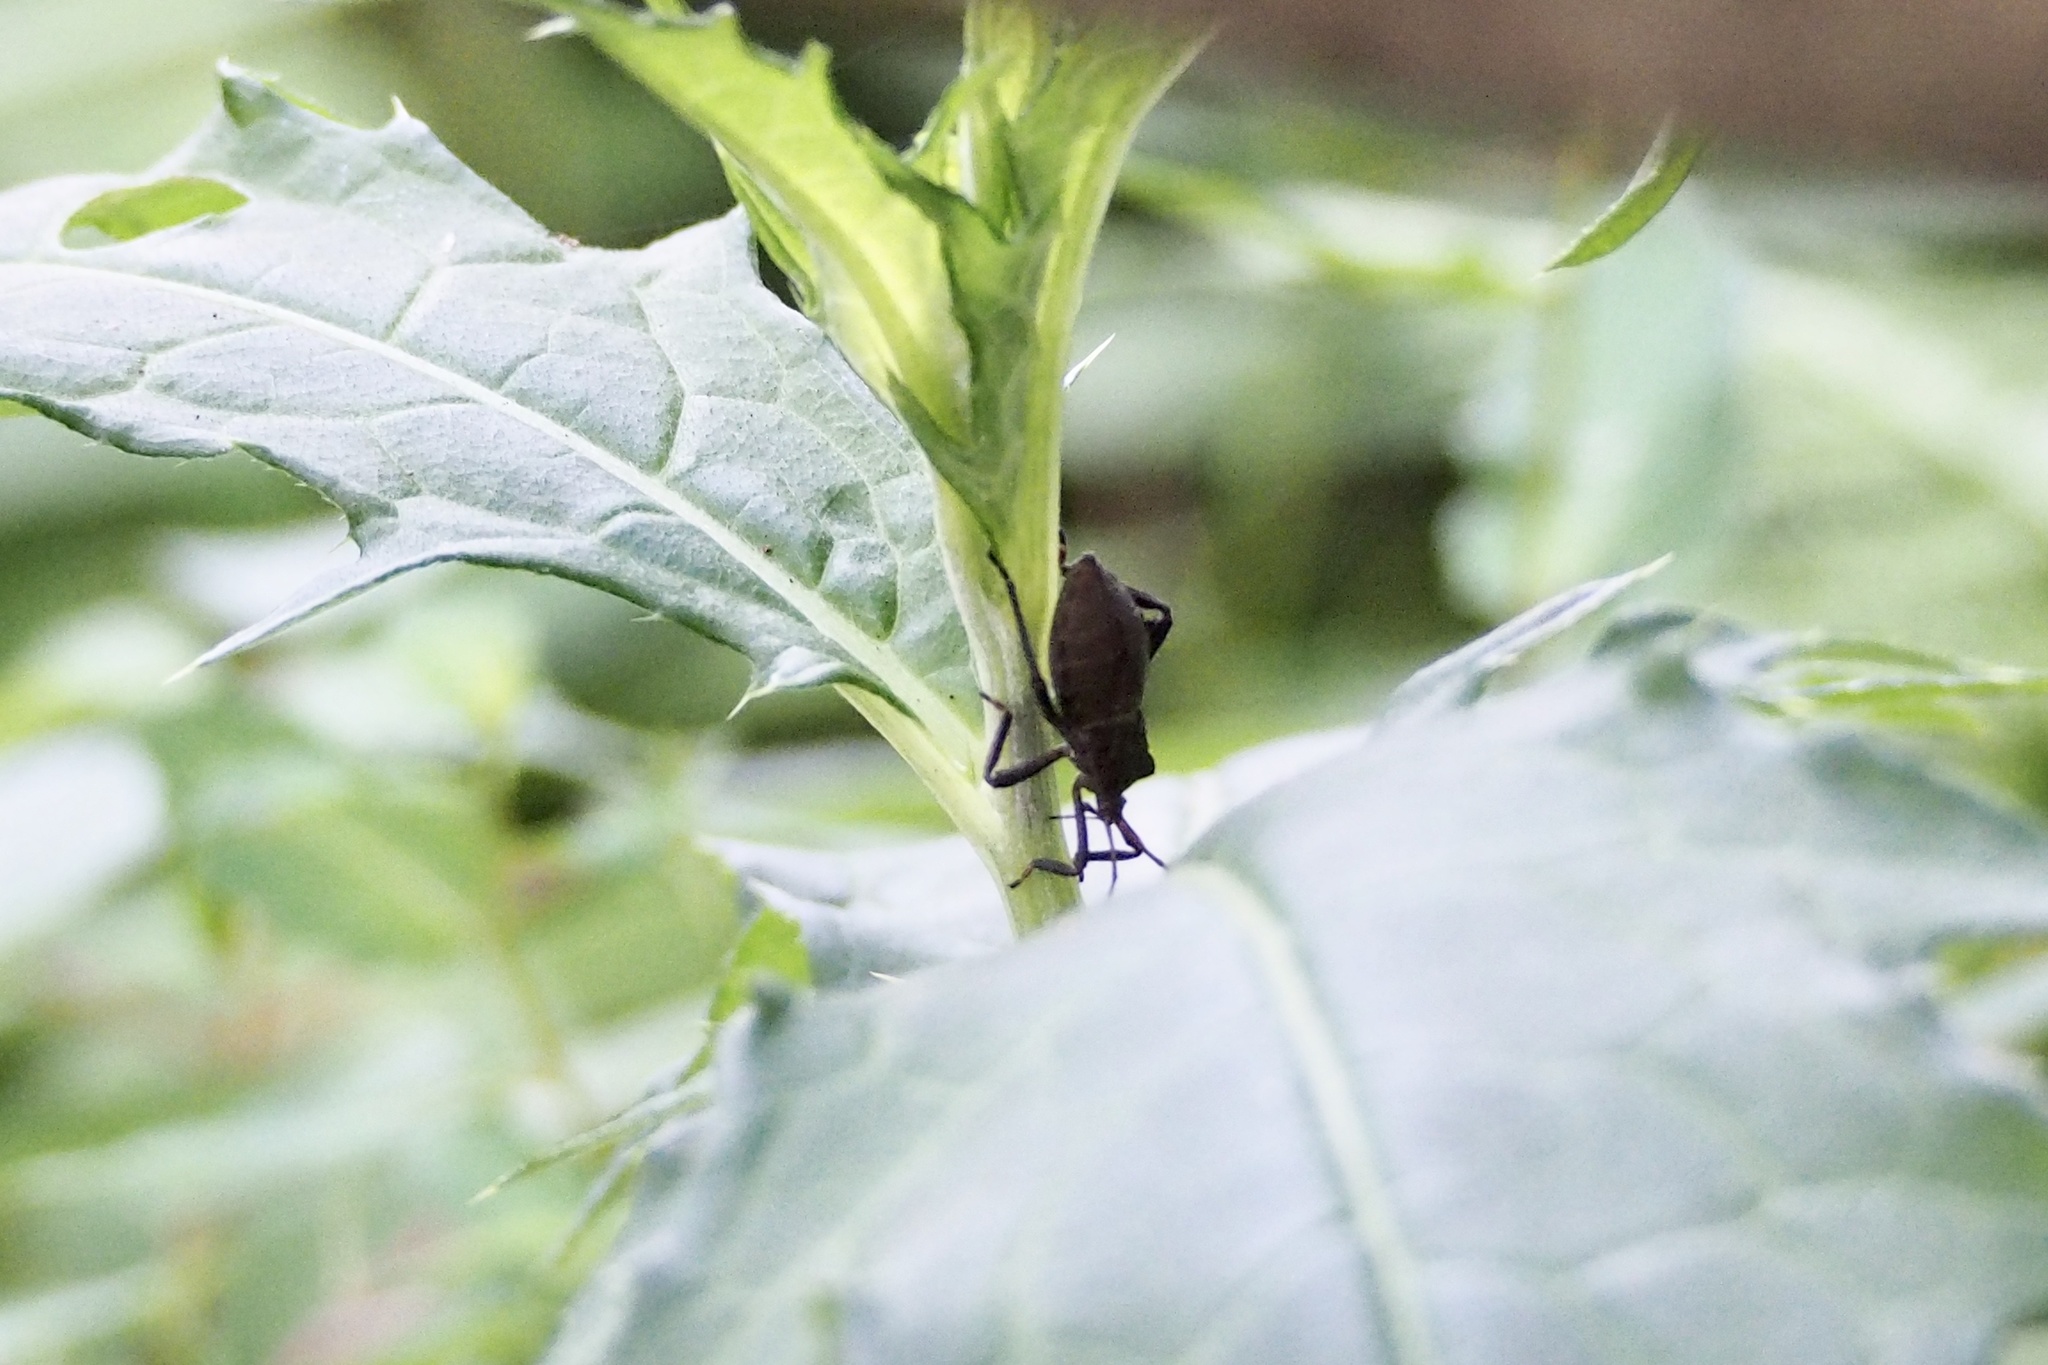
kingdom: Animalia
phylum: Arthropoda
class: Insecta
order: Hemiptera
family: Coreidae
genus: Molipteryx
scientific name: Molipteryx fuliginosa
